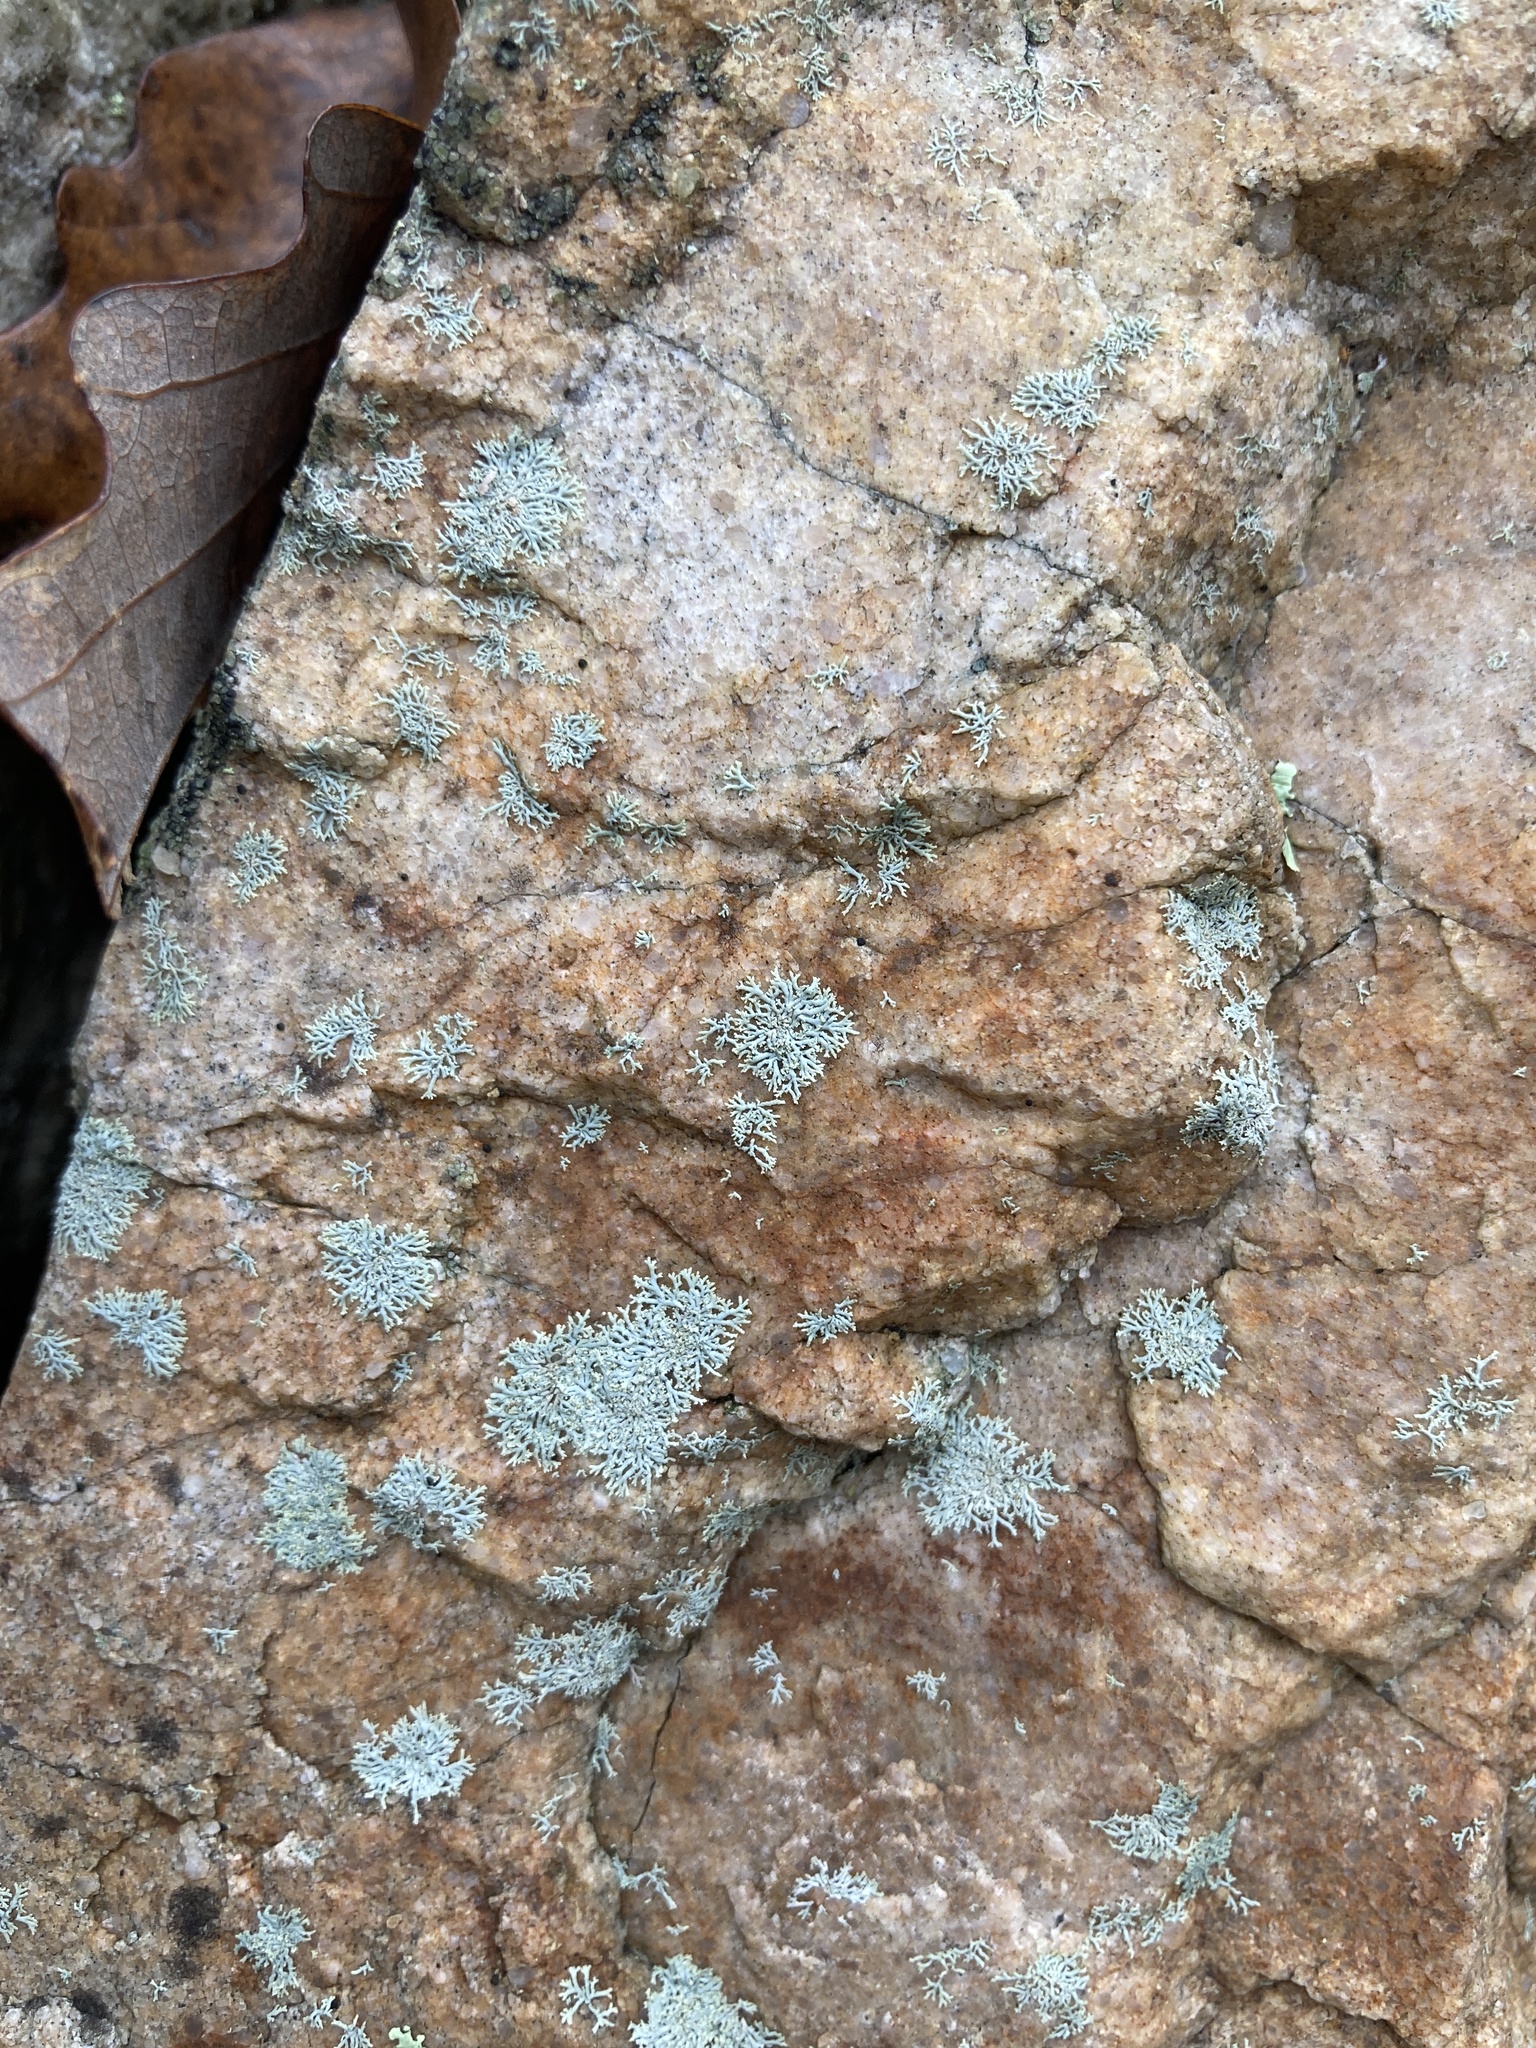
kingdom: Fungi
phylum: Ascomycota
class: Lecanoromycetes
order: Caliciales
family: Physciaceae
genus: Physcia
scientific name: Physcia subtilis
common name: Slender rosette lichen
